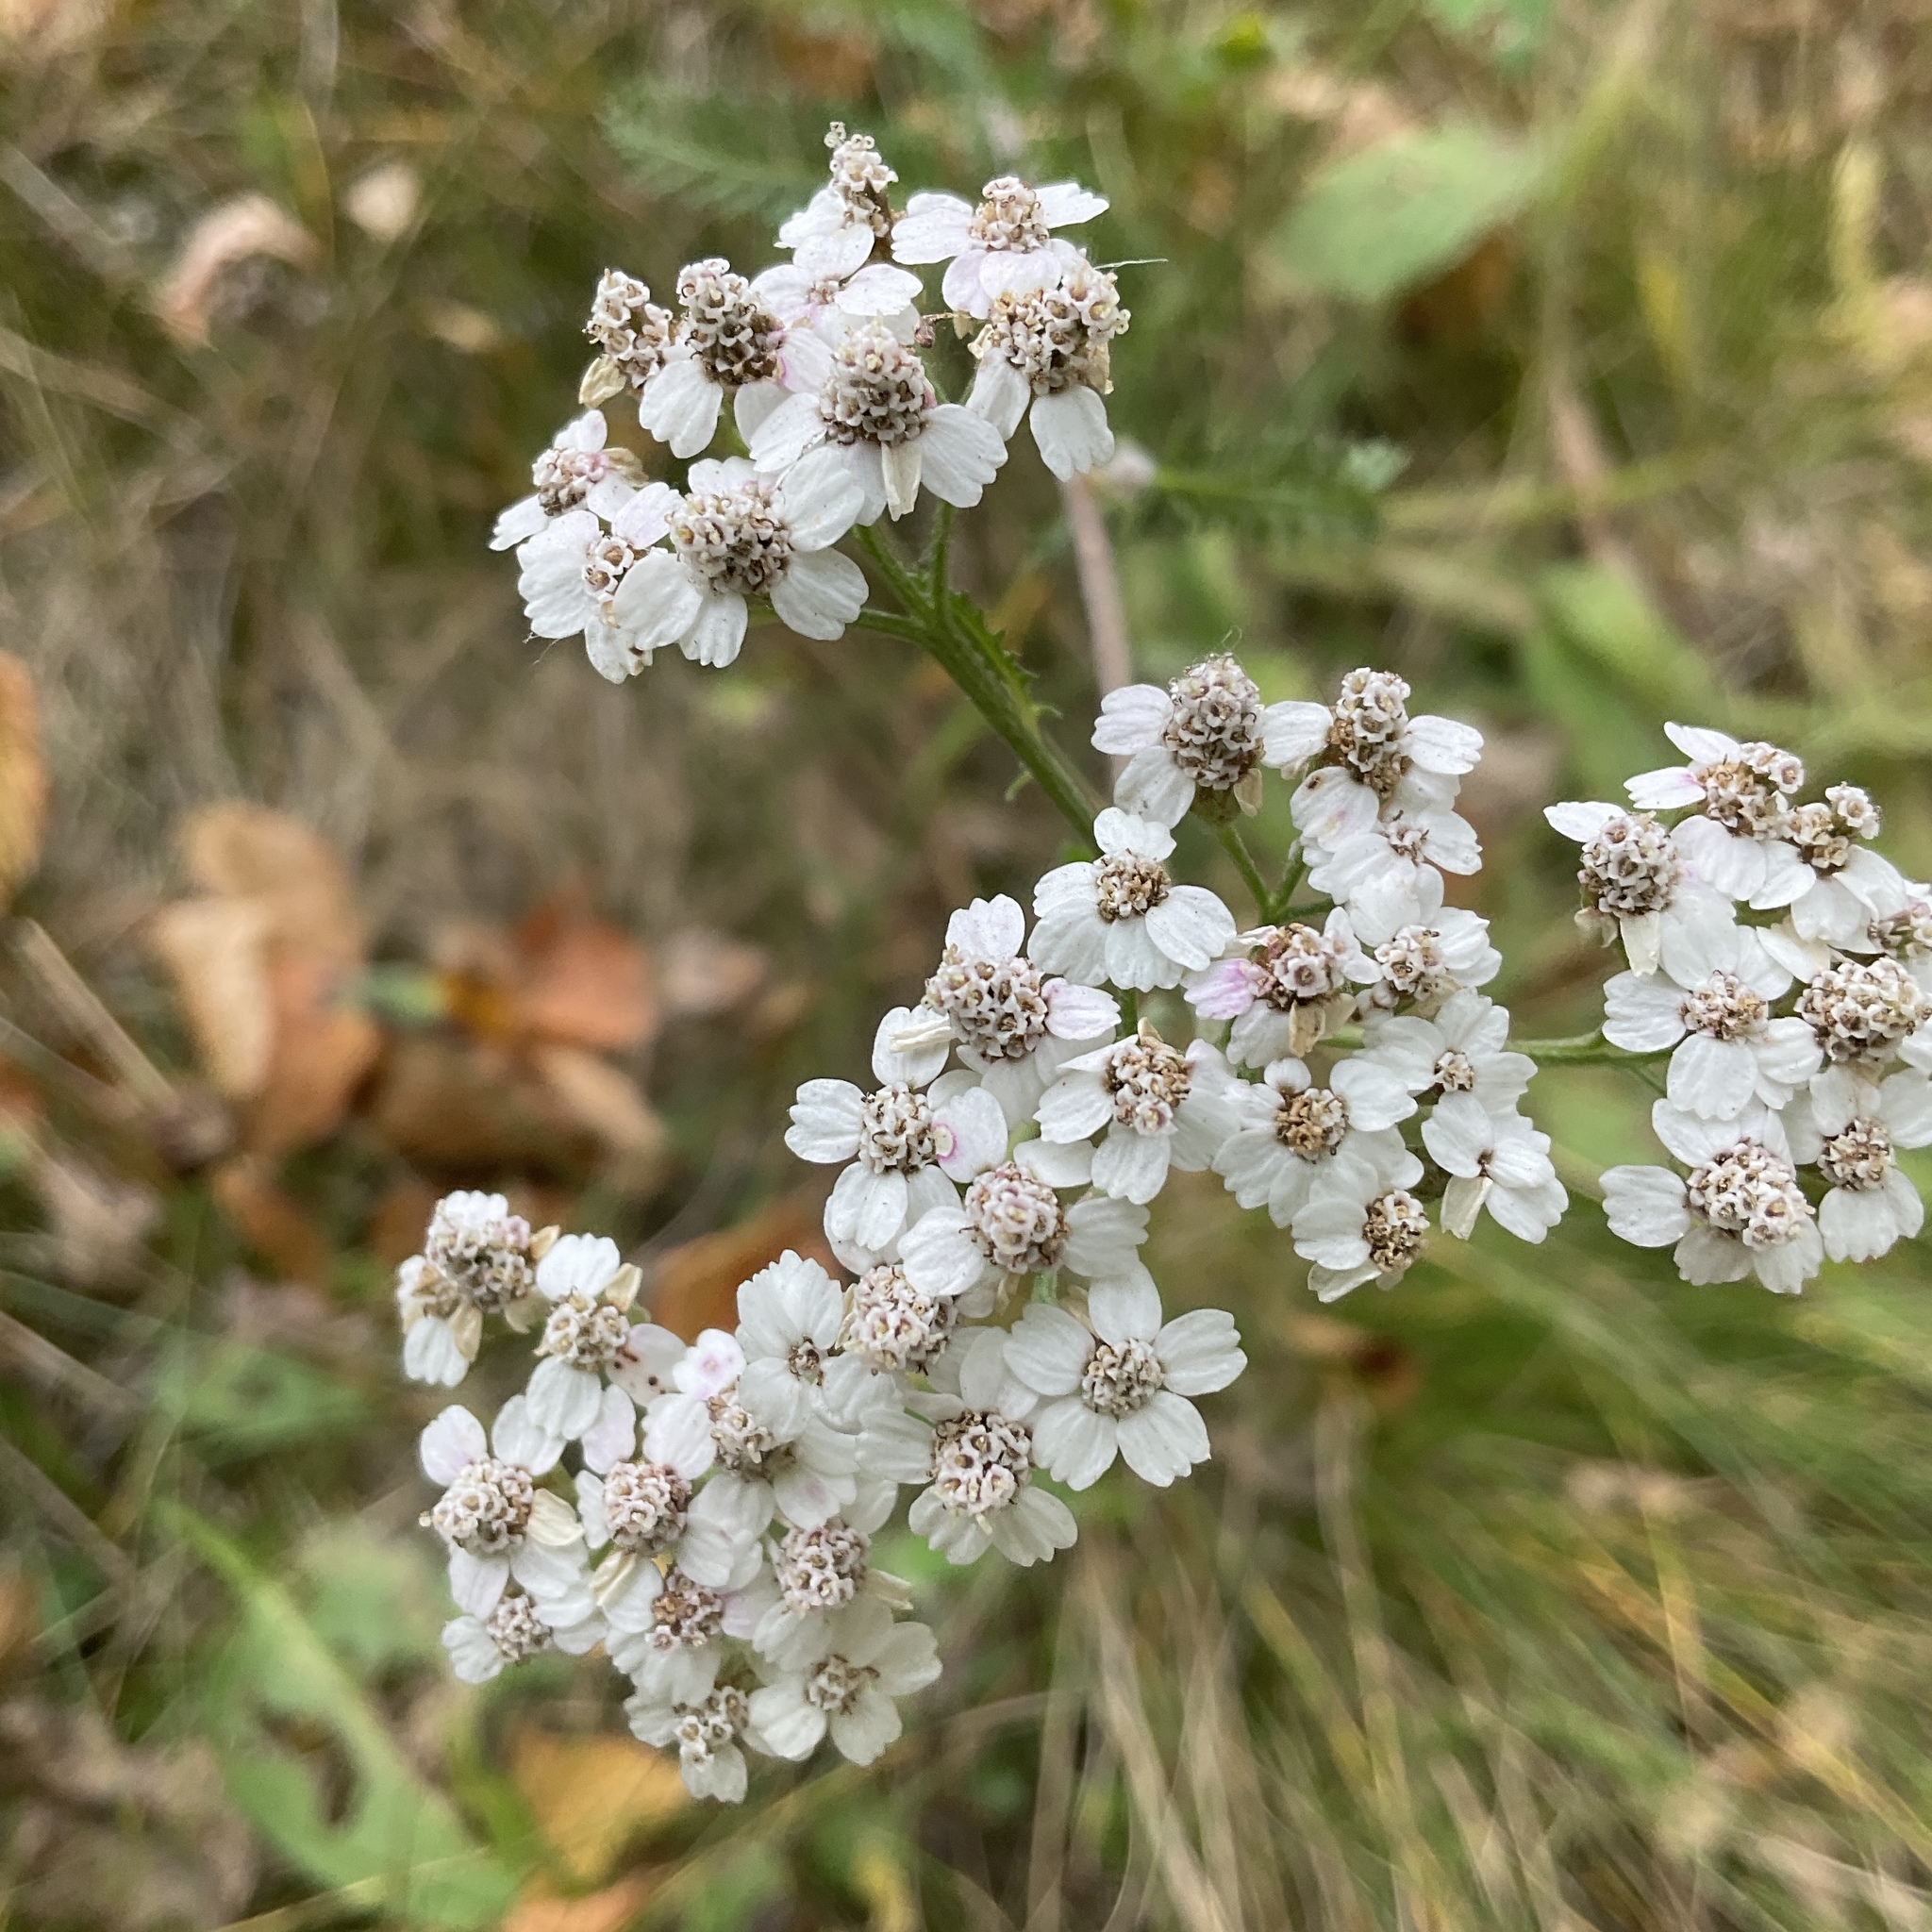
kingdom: Plantae
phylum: Tracheophyta
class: Magnoliopsida
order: Asterales
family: Asteraceae
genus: Achillea
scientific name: Achillea millefolium
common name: Yarrow
